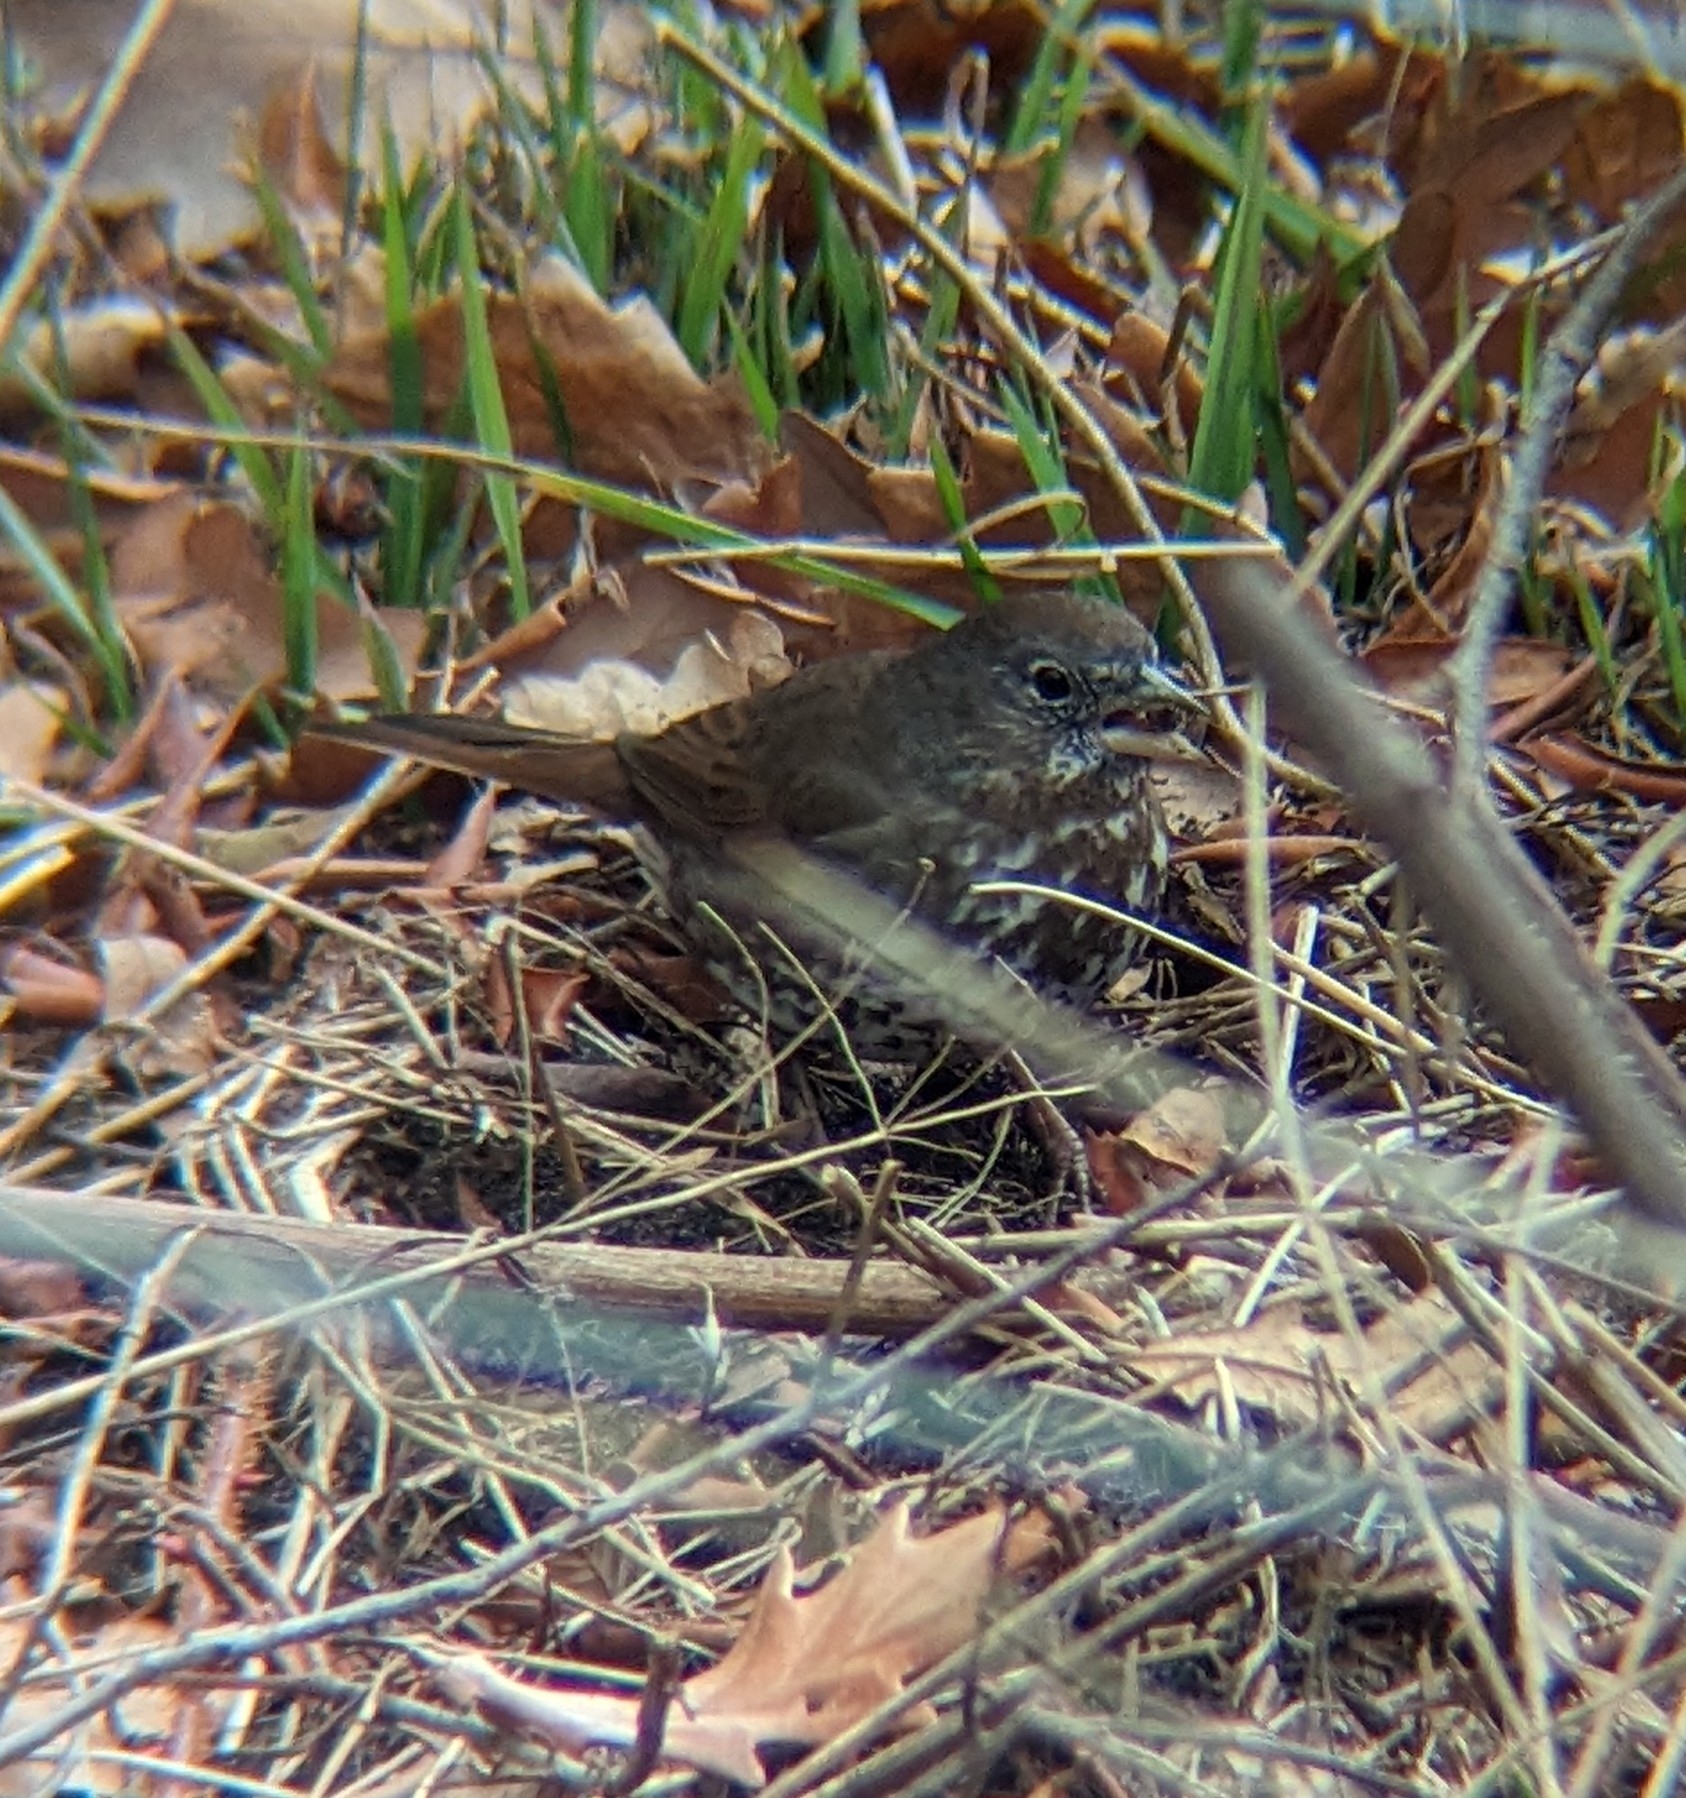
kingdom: Animalia
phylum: Chordata
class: Aves
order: Passeriformes
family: Passerellidae
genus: Passerella
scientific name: Passerella unalaschcensis
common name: Sooty fox sparrow
